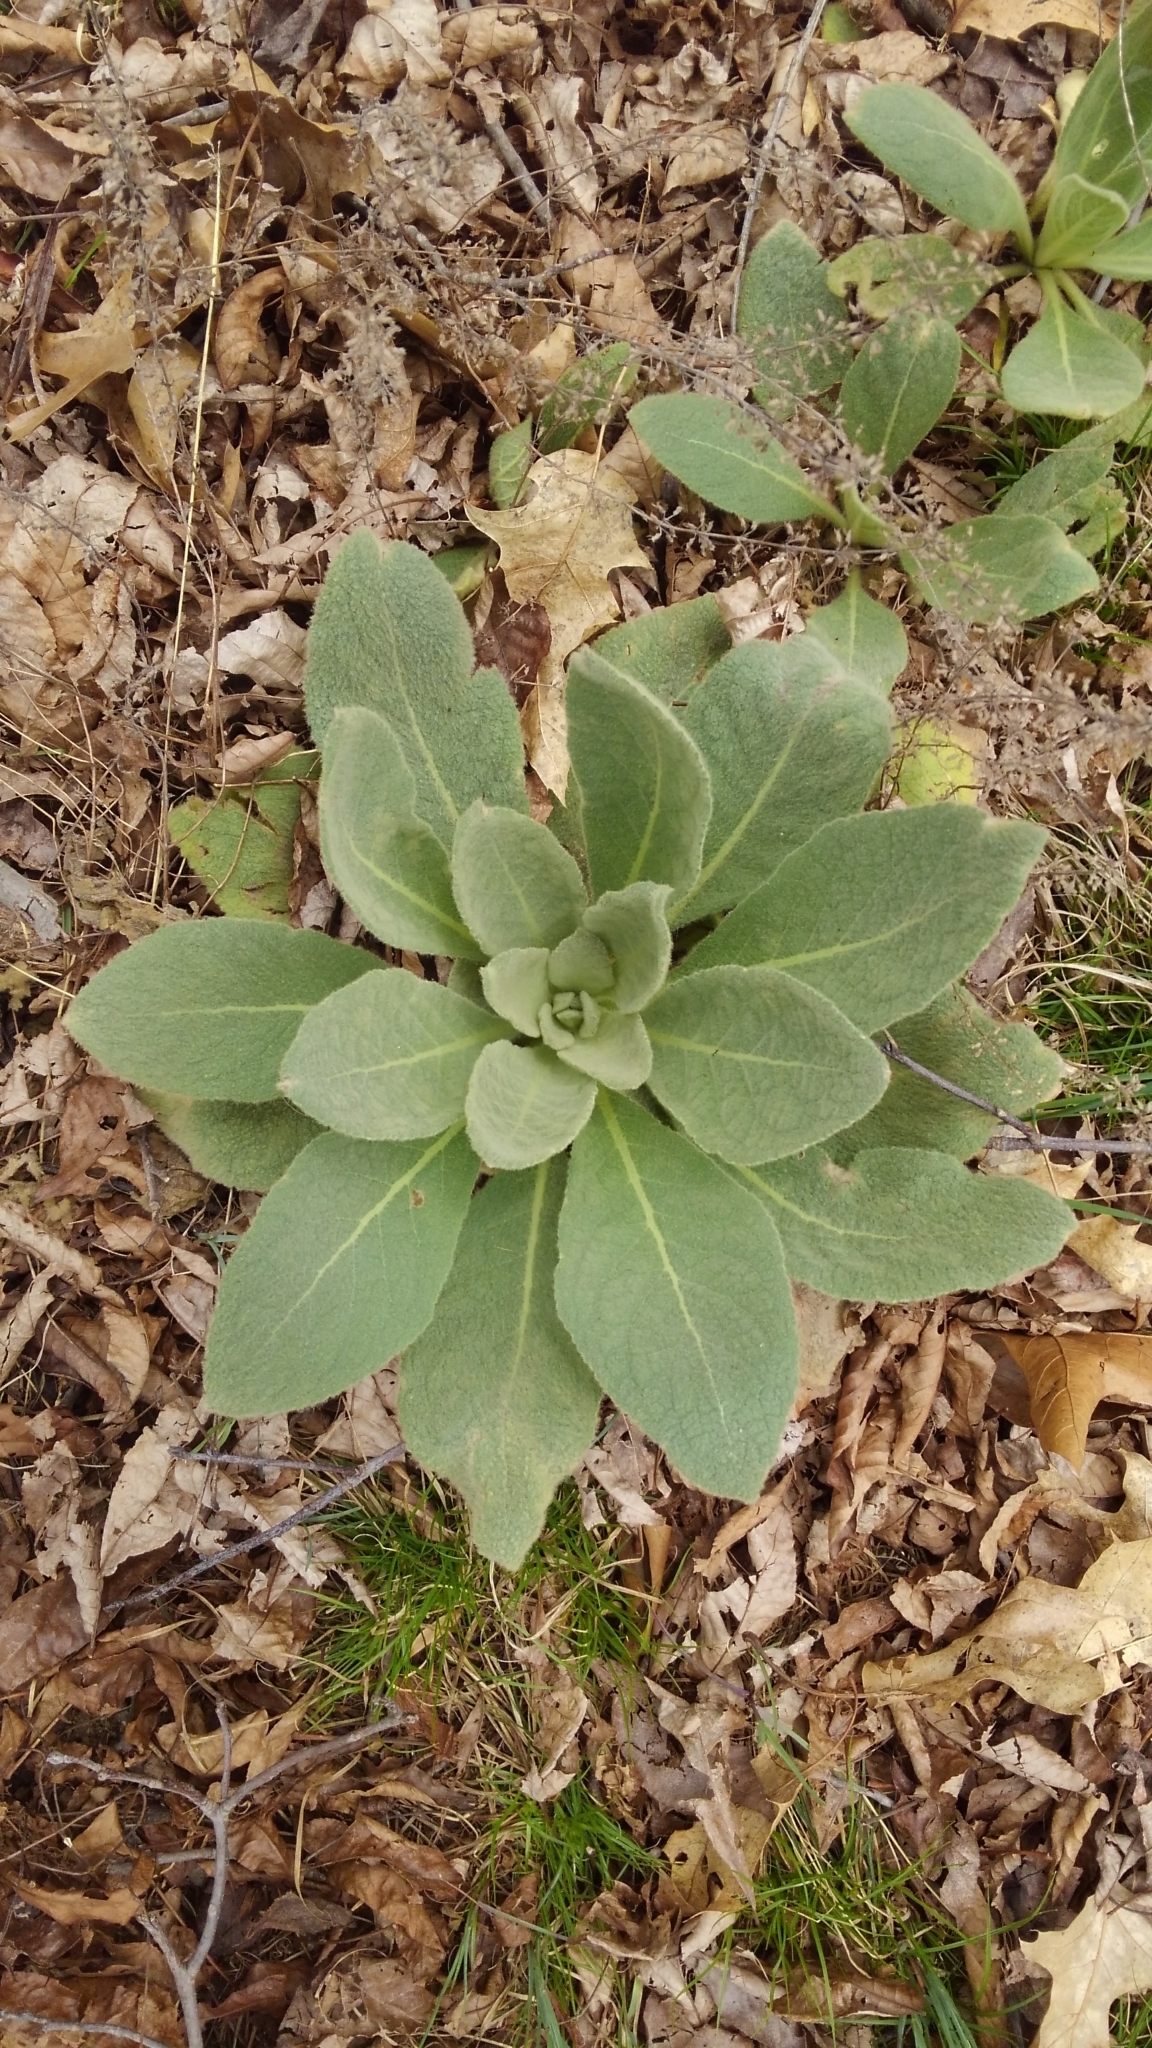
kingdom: Plantae
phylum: Tracheophyta
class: Magnoliopsida
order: Lamiales
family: Scrophulariaceae
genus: Verbascum
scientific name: Verbascum thapsus
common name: Common mullein
